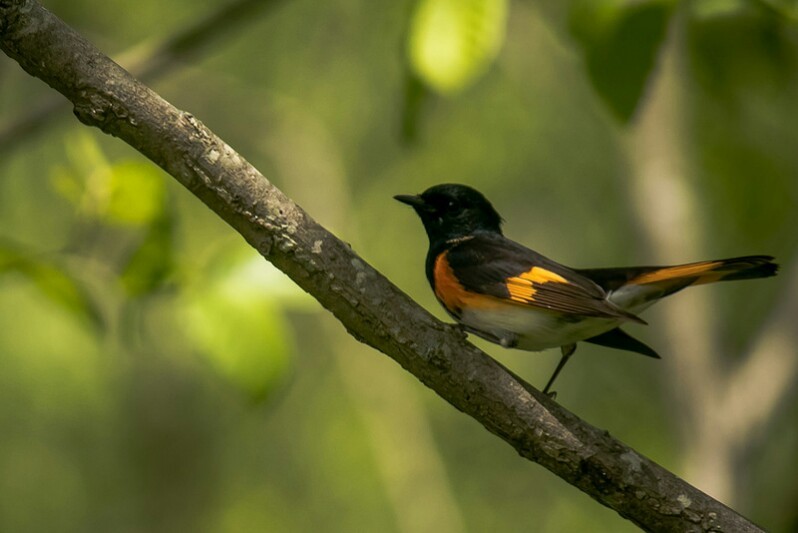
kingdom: Animalia
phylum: Chordata
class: Aves
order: Passeriformes
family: Parulidae
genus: Setophaga
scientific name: Setophaga ruticilla
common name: American redstart
